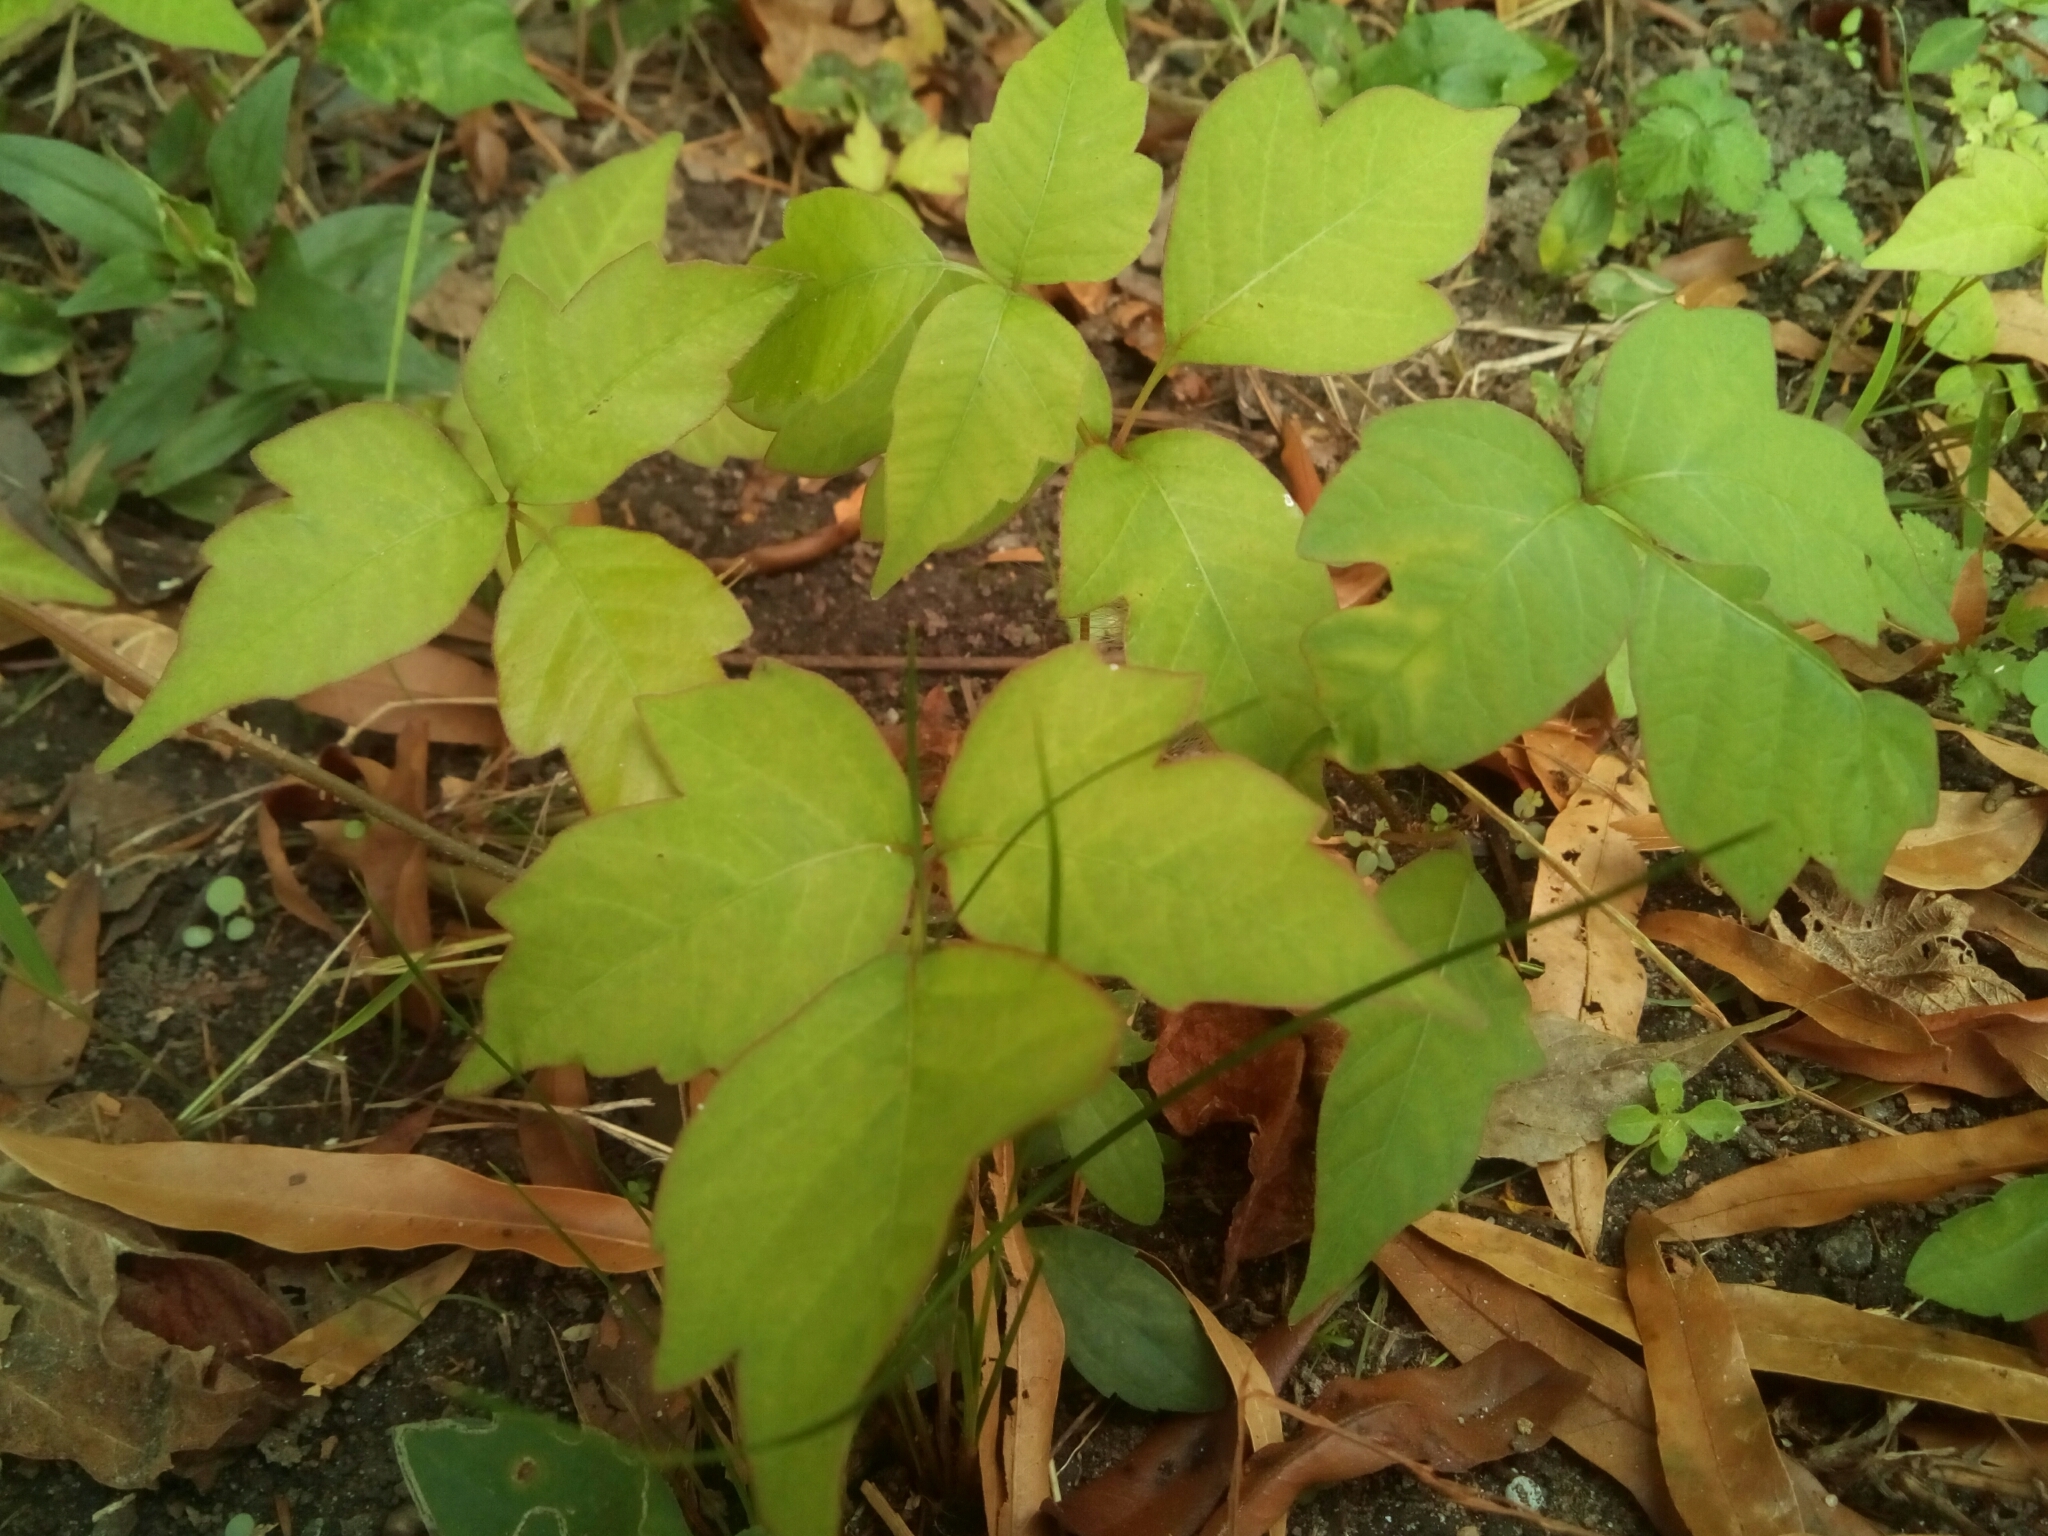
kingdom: Plantae
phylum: Tracheophyta
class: Magnoliopsida
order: Sapindales
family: Anacardiaceae
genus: Toxicodendron
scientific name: Toxicodendron radicans
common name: Poison ivy
